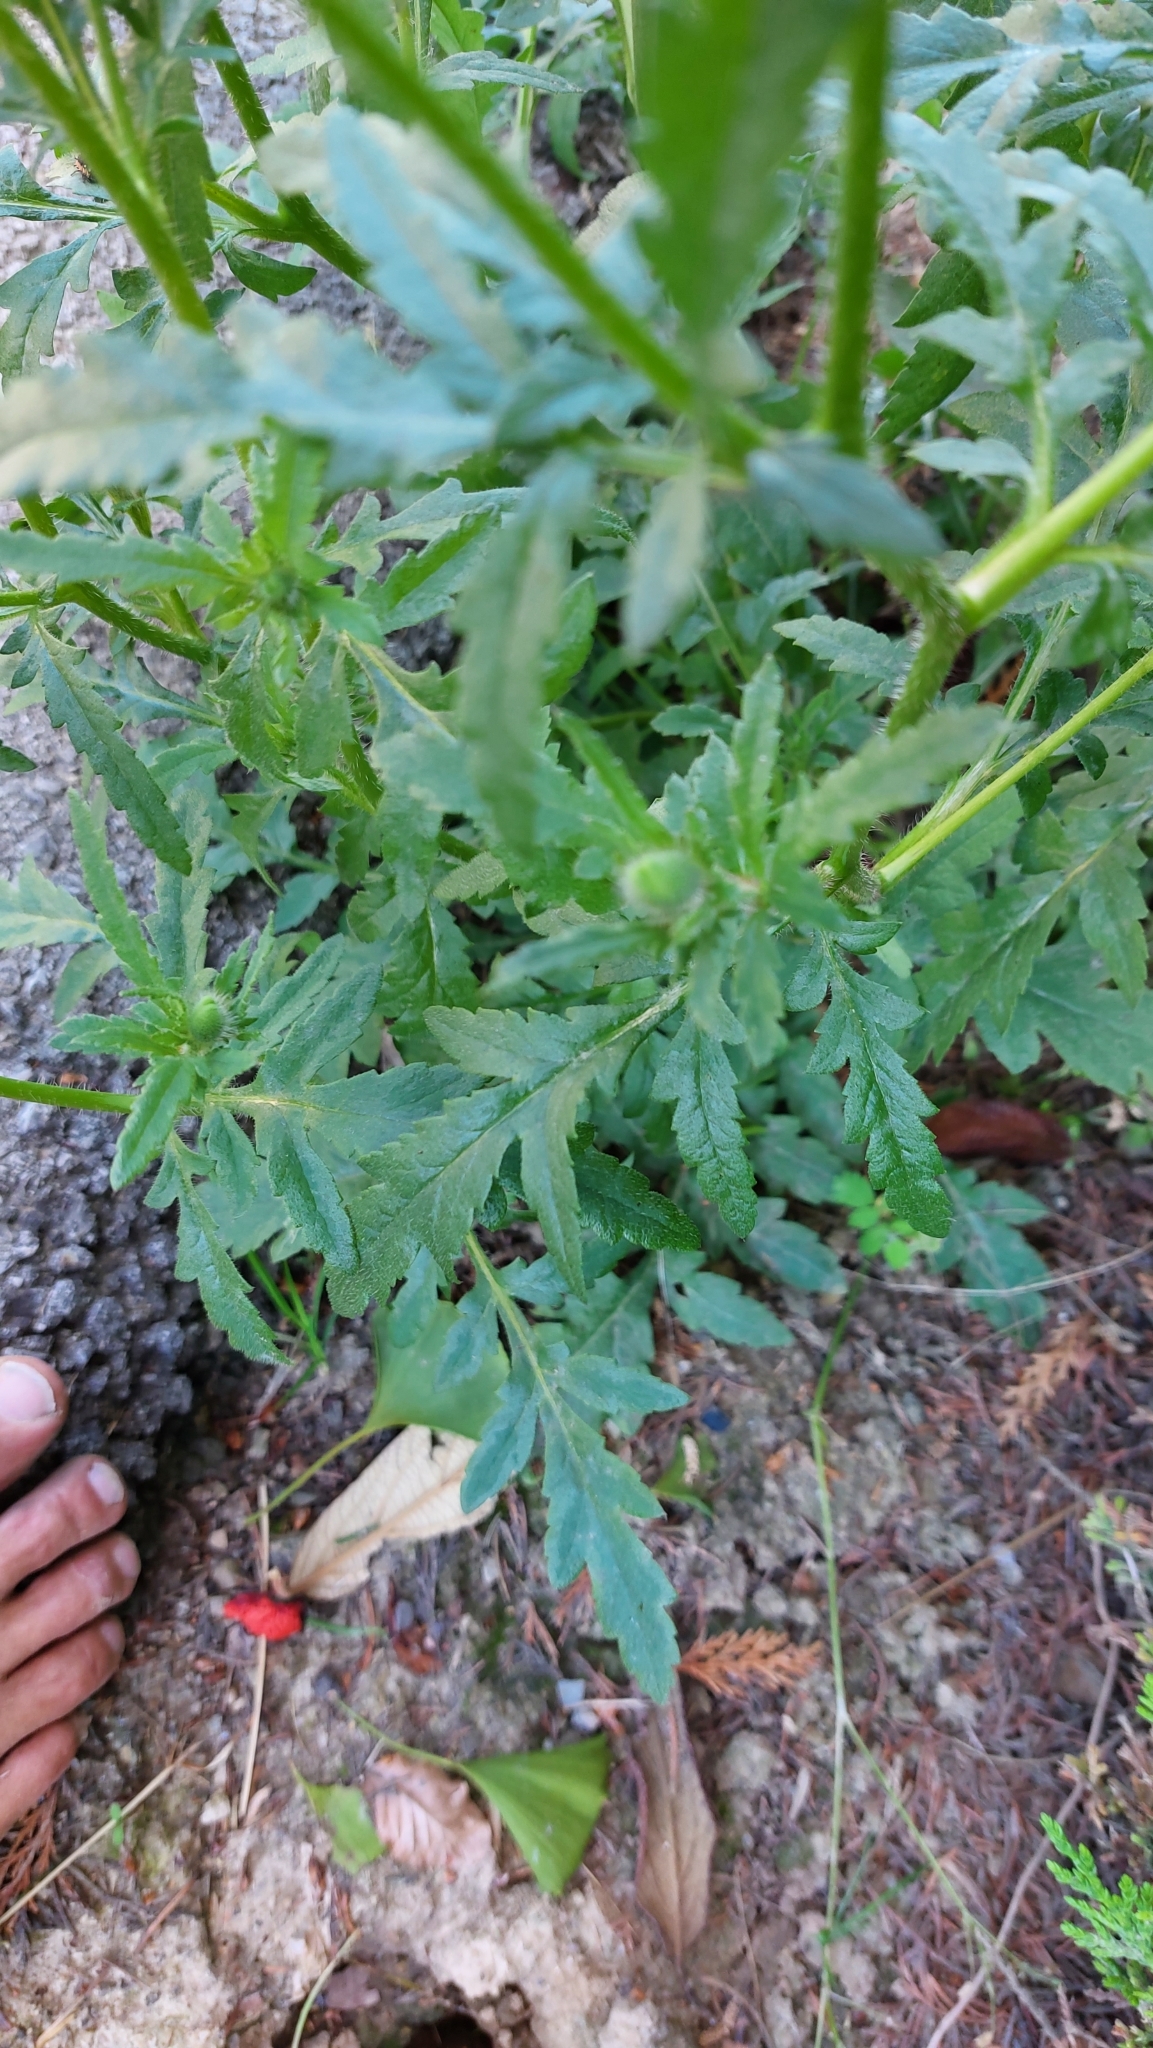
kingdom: Plantae
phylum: Tracheophyta
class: Magnoliopsida
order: Ranunculales
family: Papaveraceae
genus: Papaver
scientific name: Papaver rhoeas
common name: Corn poppy
